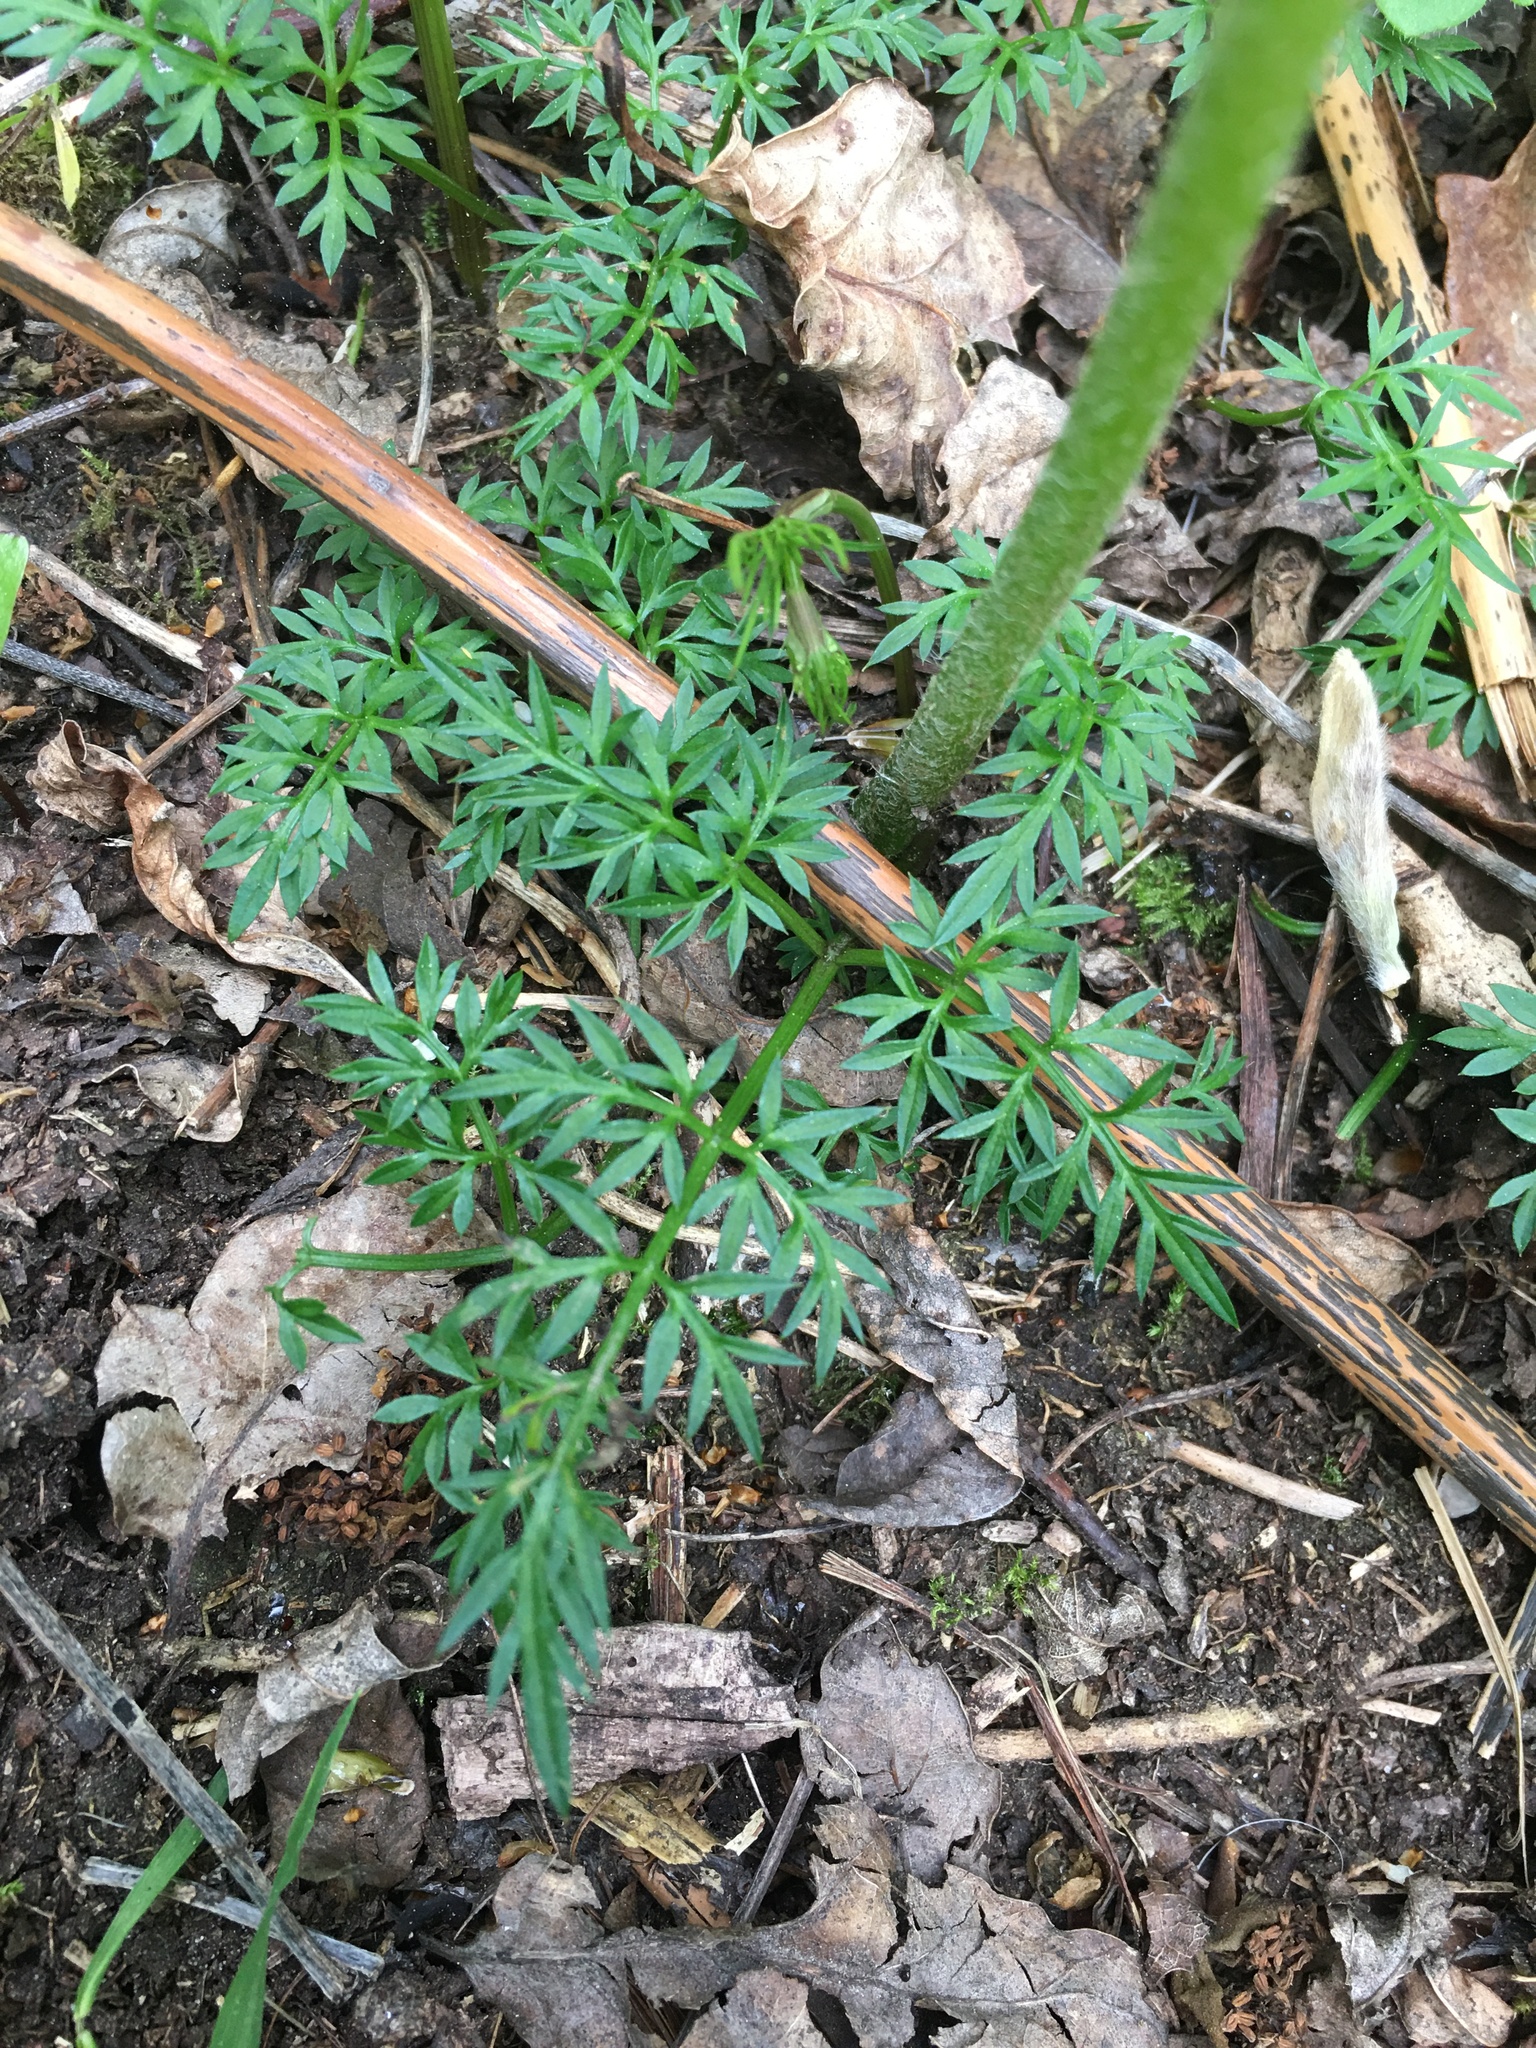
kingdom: Plantae
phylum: Tracheophyta
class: Magnoliopsida
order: Apiales
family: Apiaceae
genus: Conopodium
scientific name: Conopodium majus
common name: Pignut
